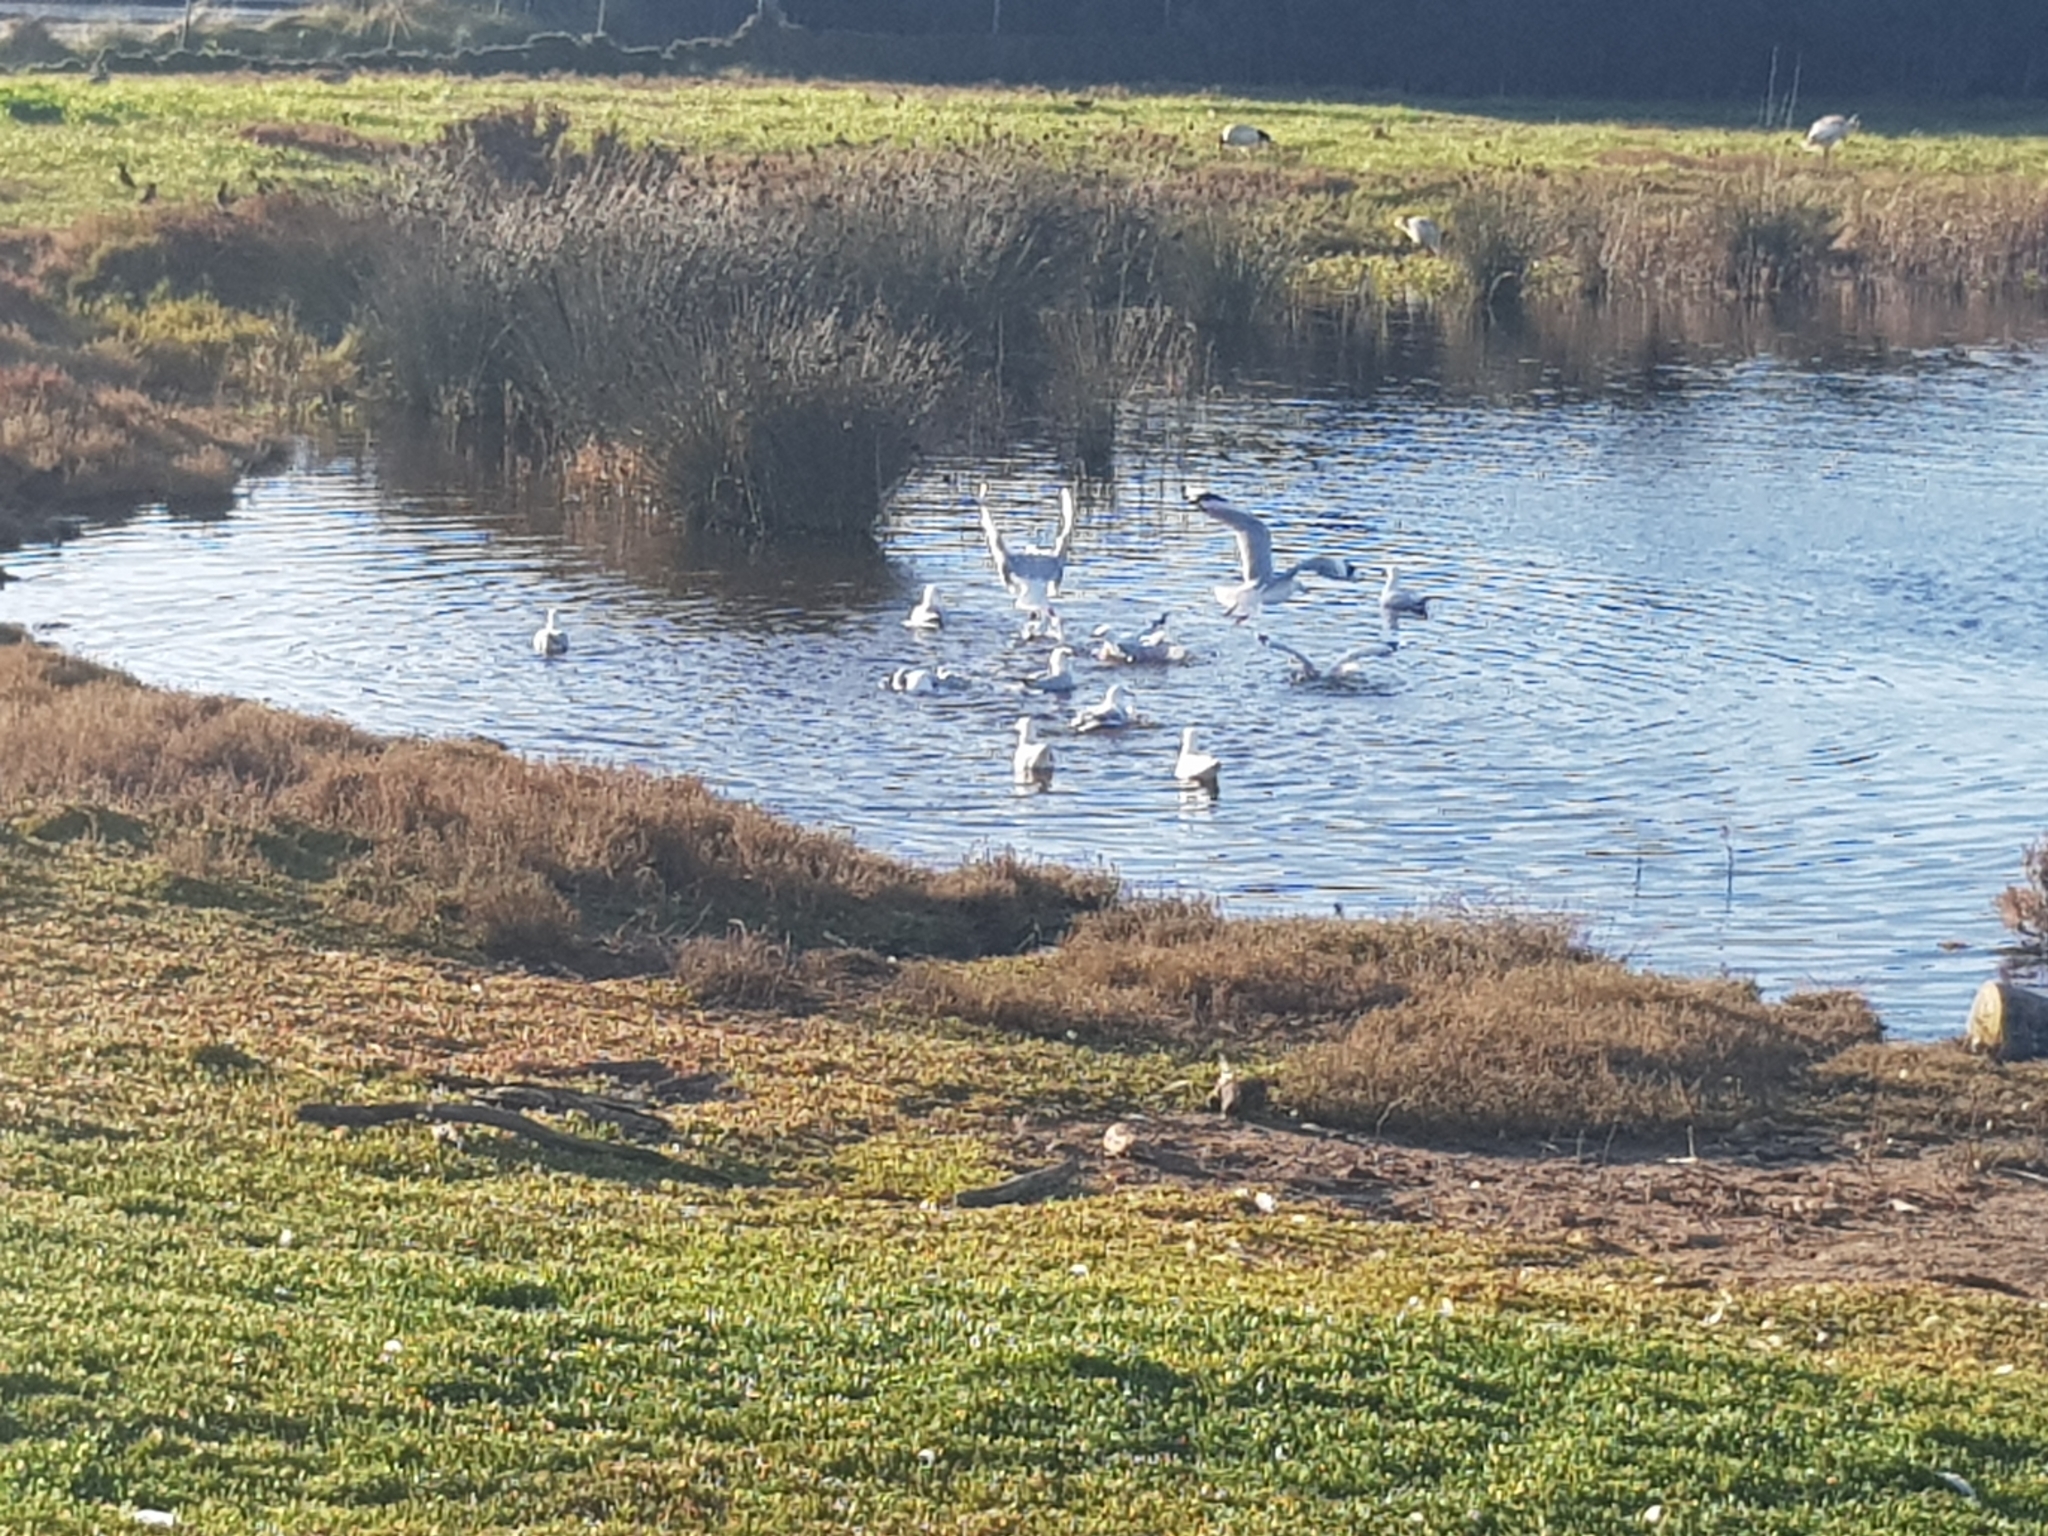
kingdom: Animalia
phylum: Chordata
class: Aves
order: Charadriiformes
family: Laridae
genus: Chroicocephalus
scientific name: Chroicocephalus novaehollandiae
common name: Silver gull
